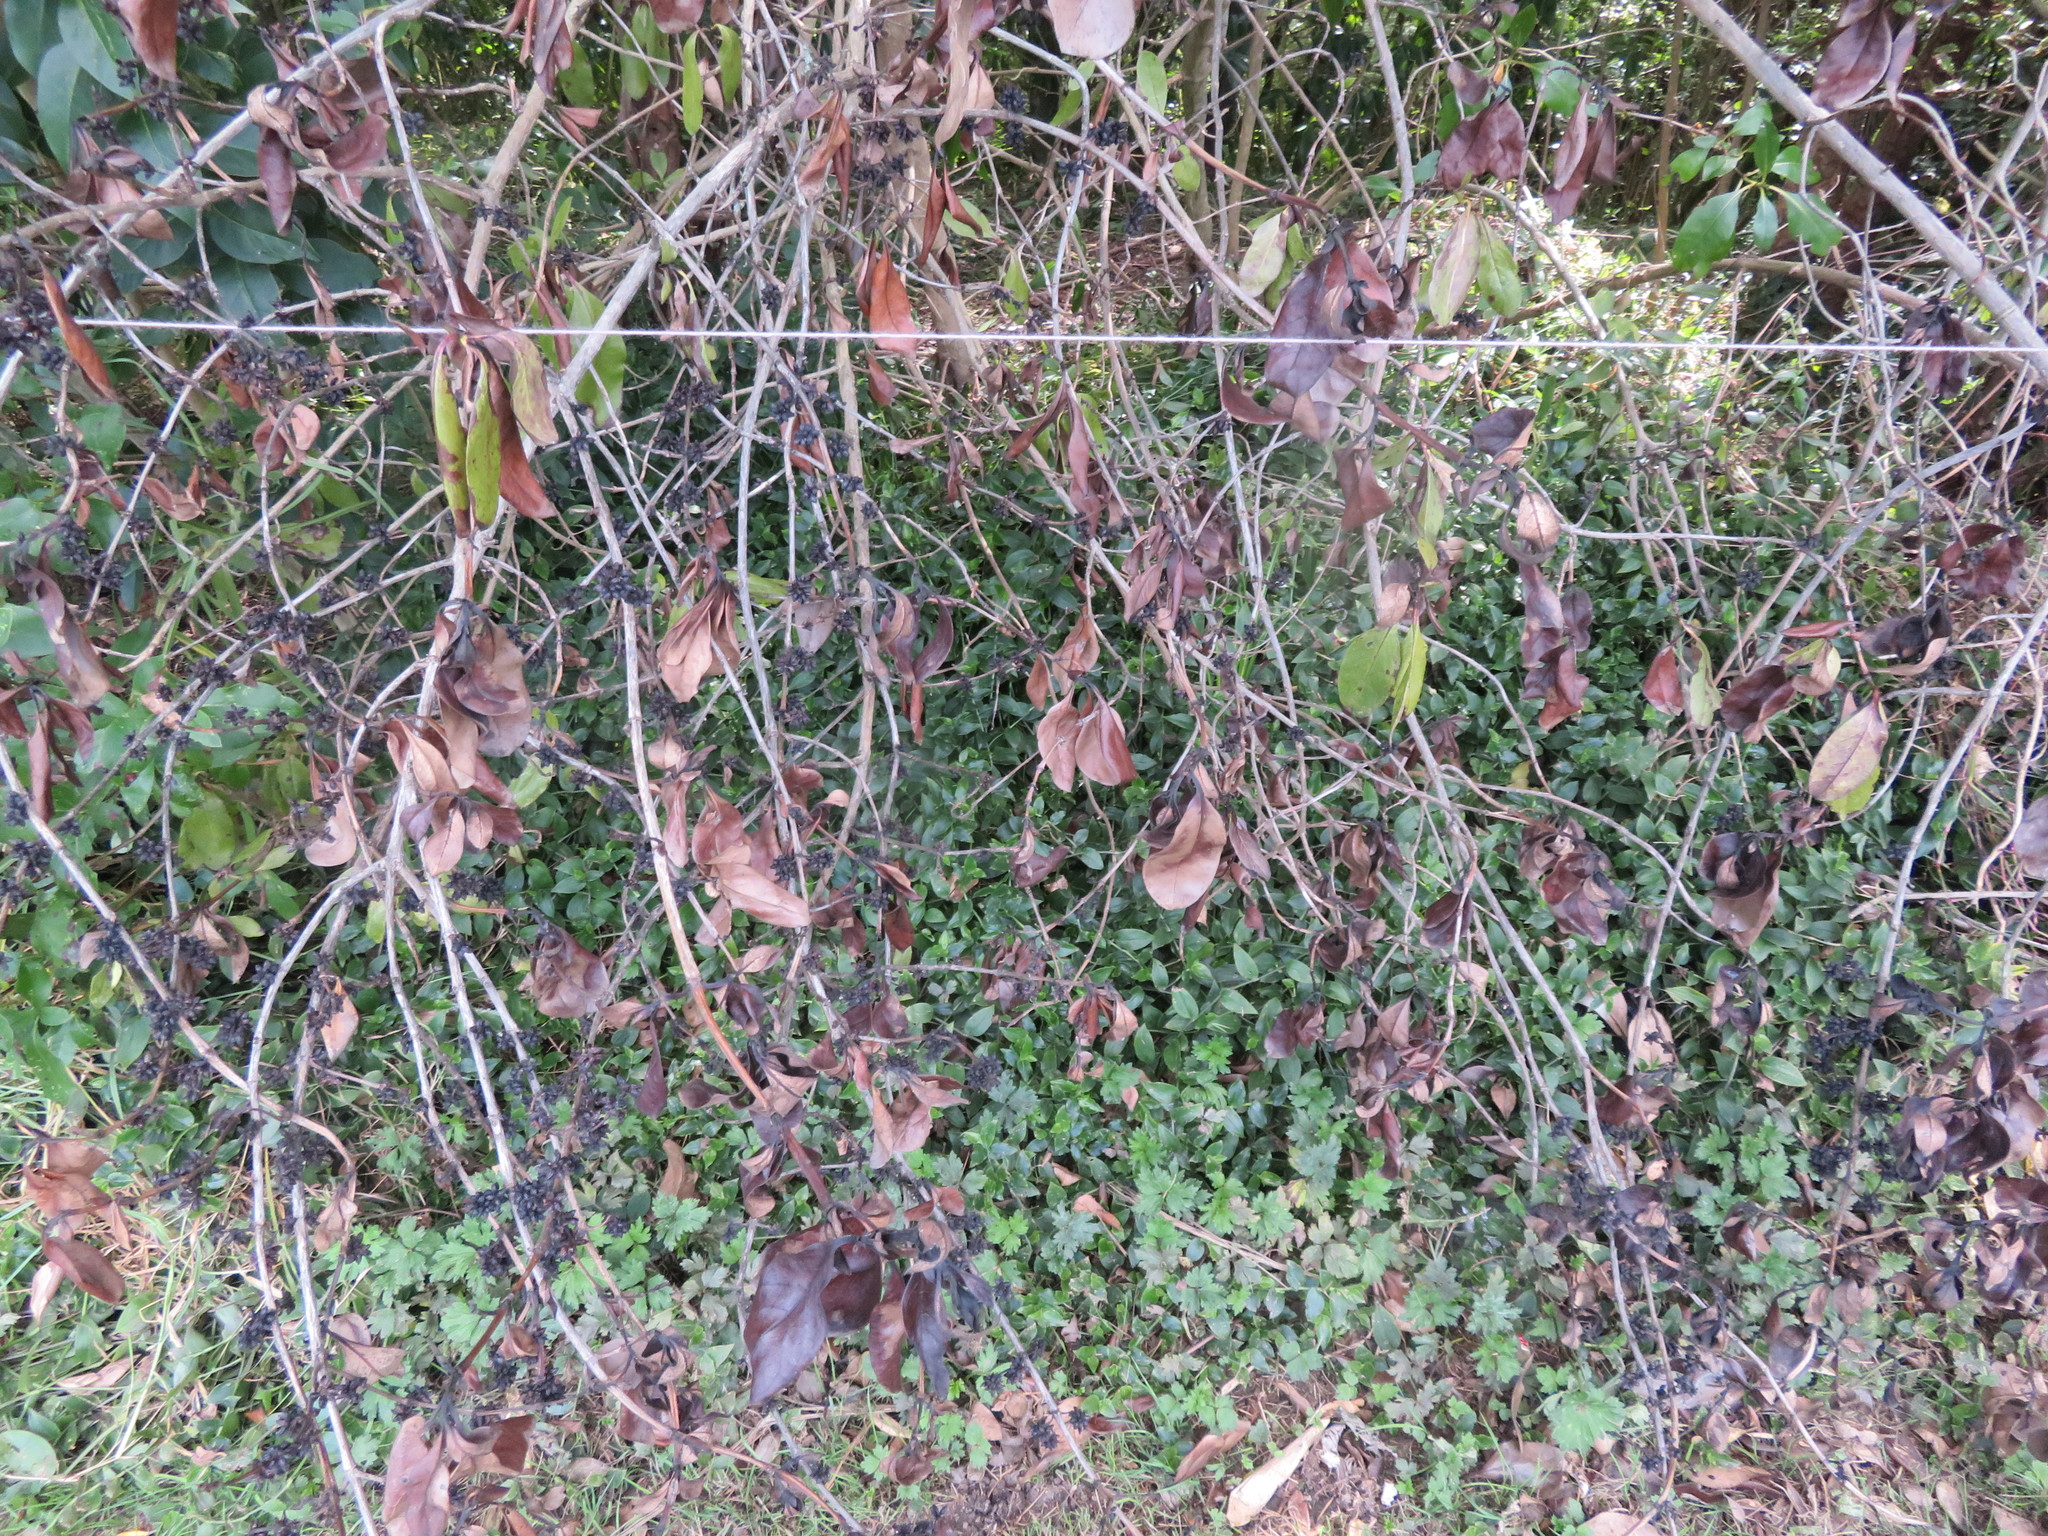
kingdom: Plantae
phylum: Tracheophyta
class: Magnoliopsida
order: Gentianales
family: Rubiaceae
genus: Coprosma
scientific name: Coprosma robusta
